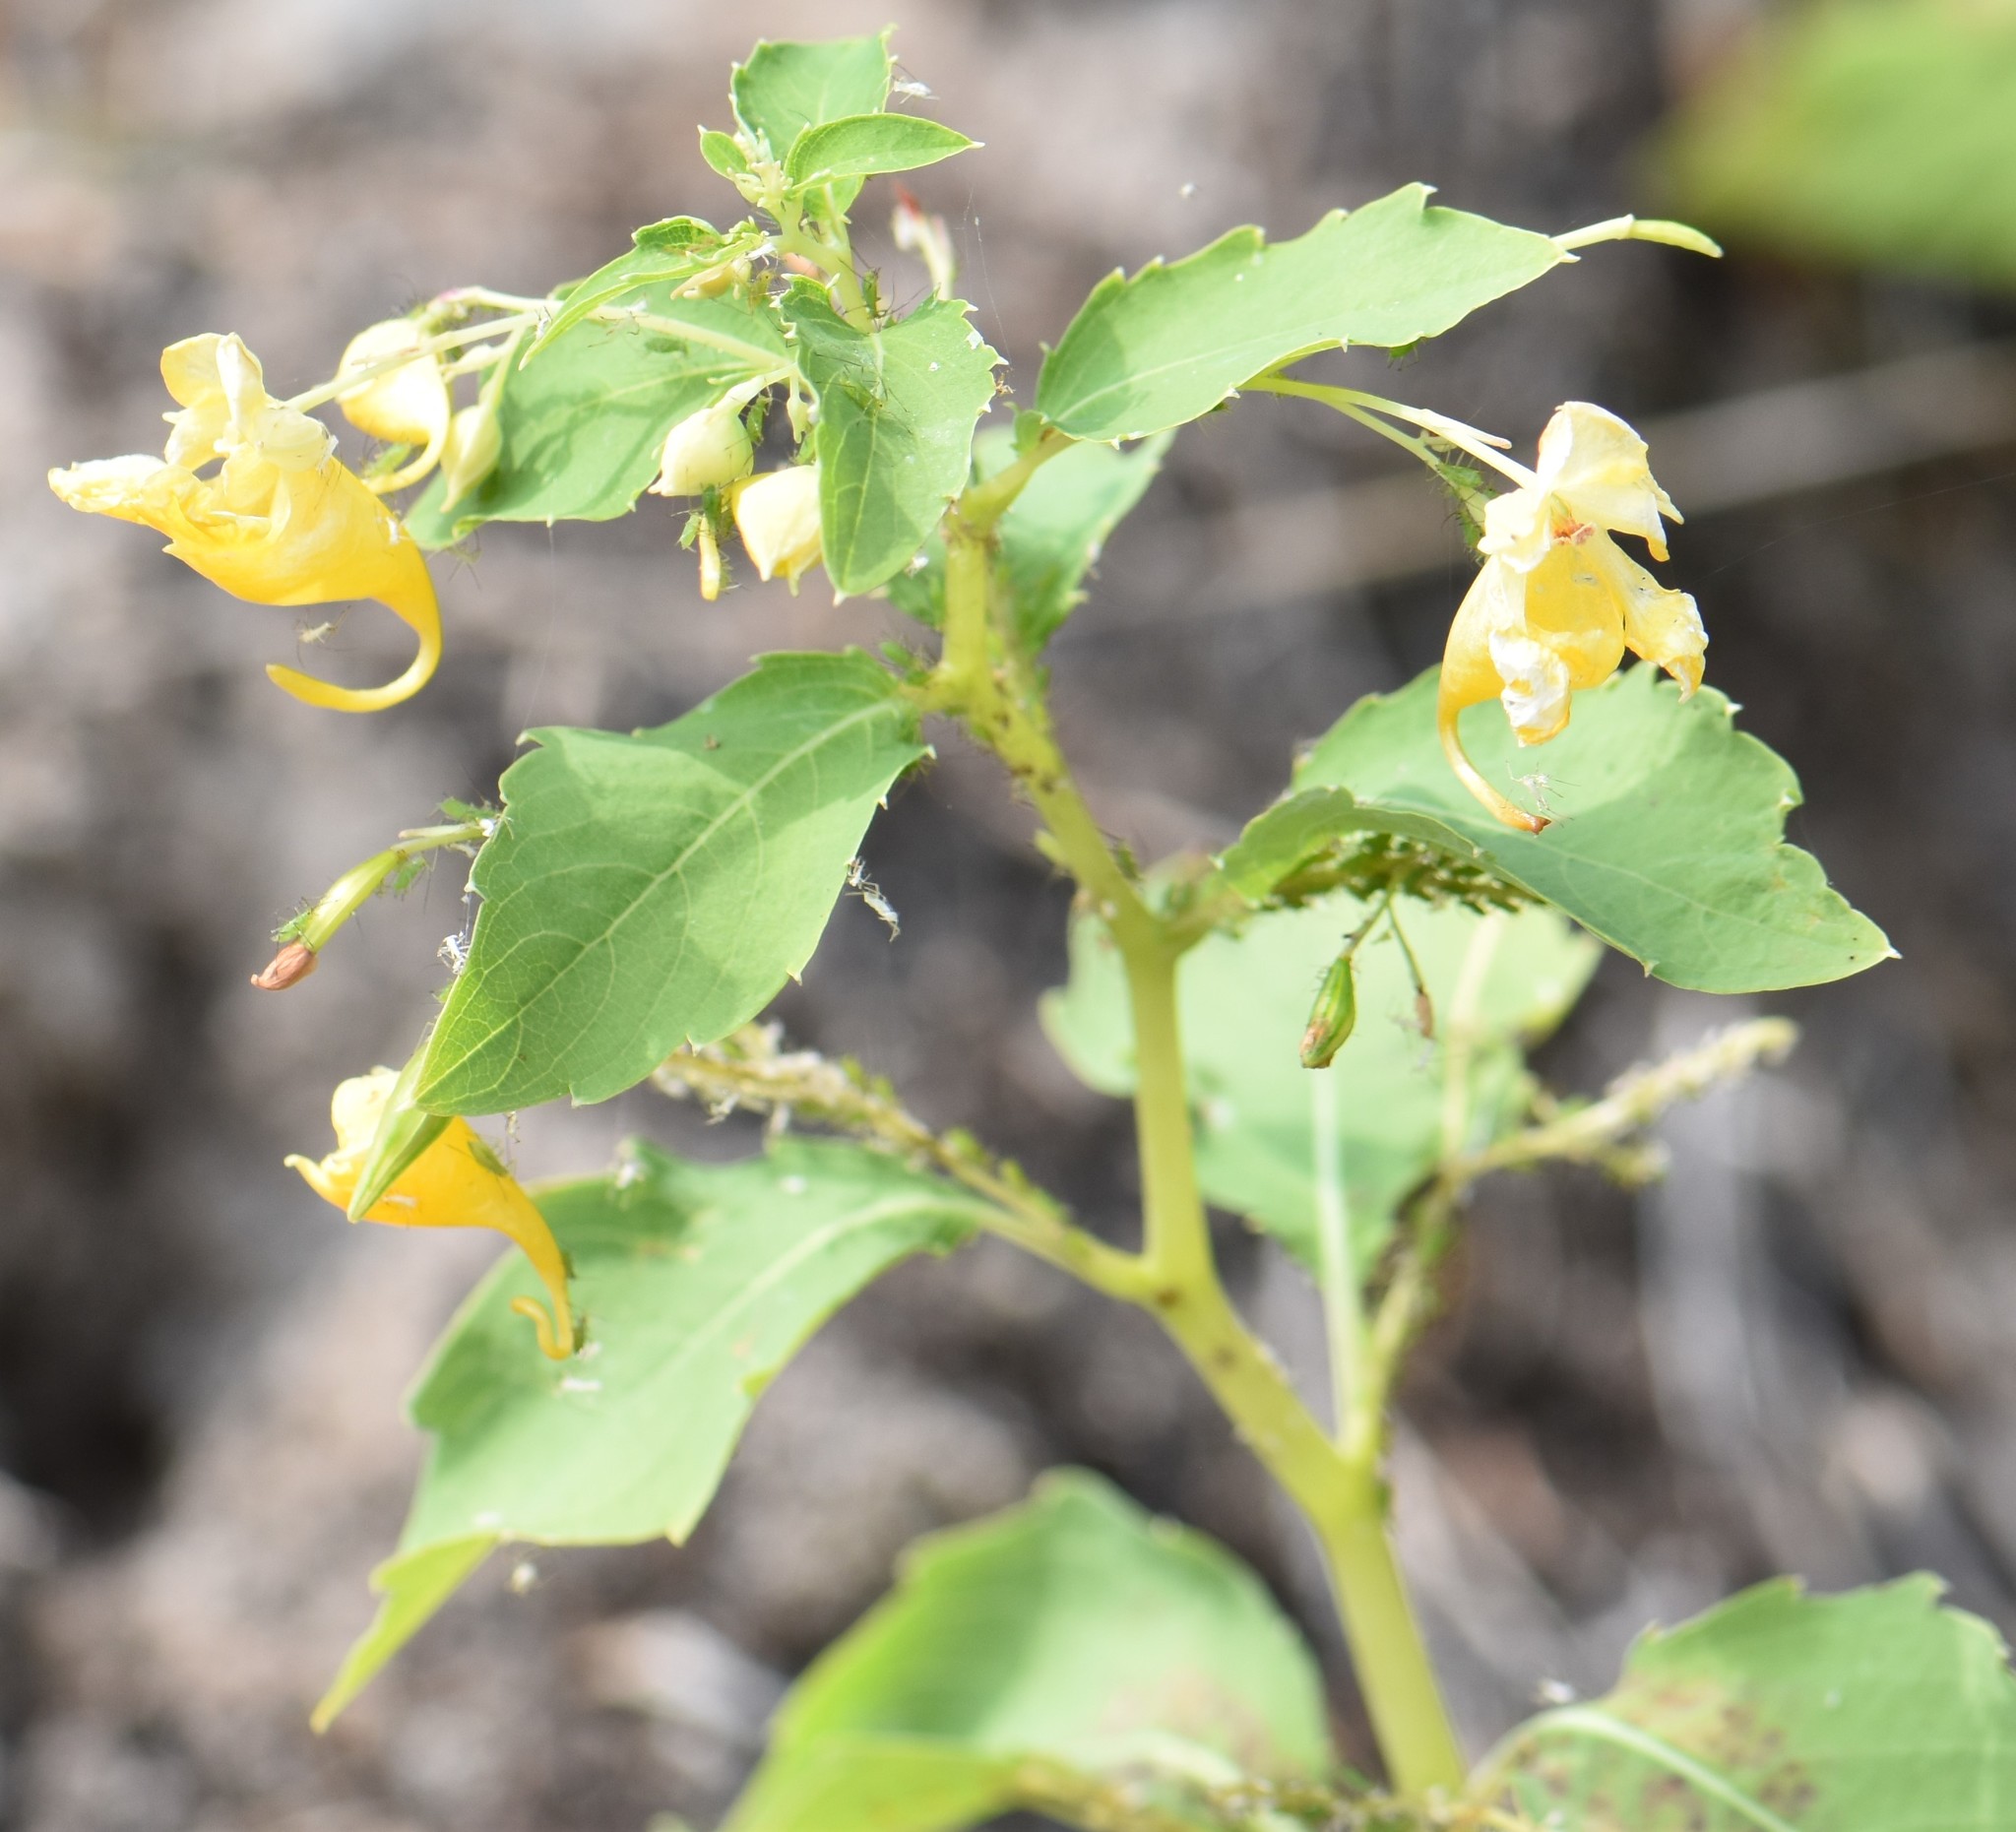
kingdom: Plantae
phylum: Tracheophyta
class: Magnoliopsida
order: Ericales
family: Balsaminaceae
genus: Impatiens
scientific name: Impatiens capensis
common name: Orange balsam
